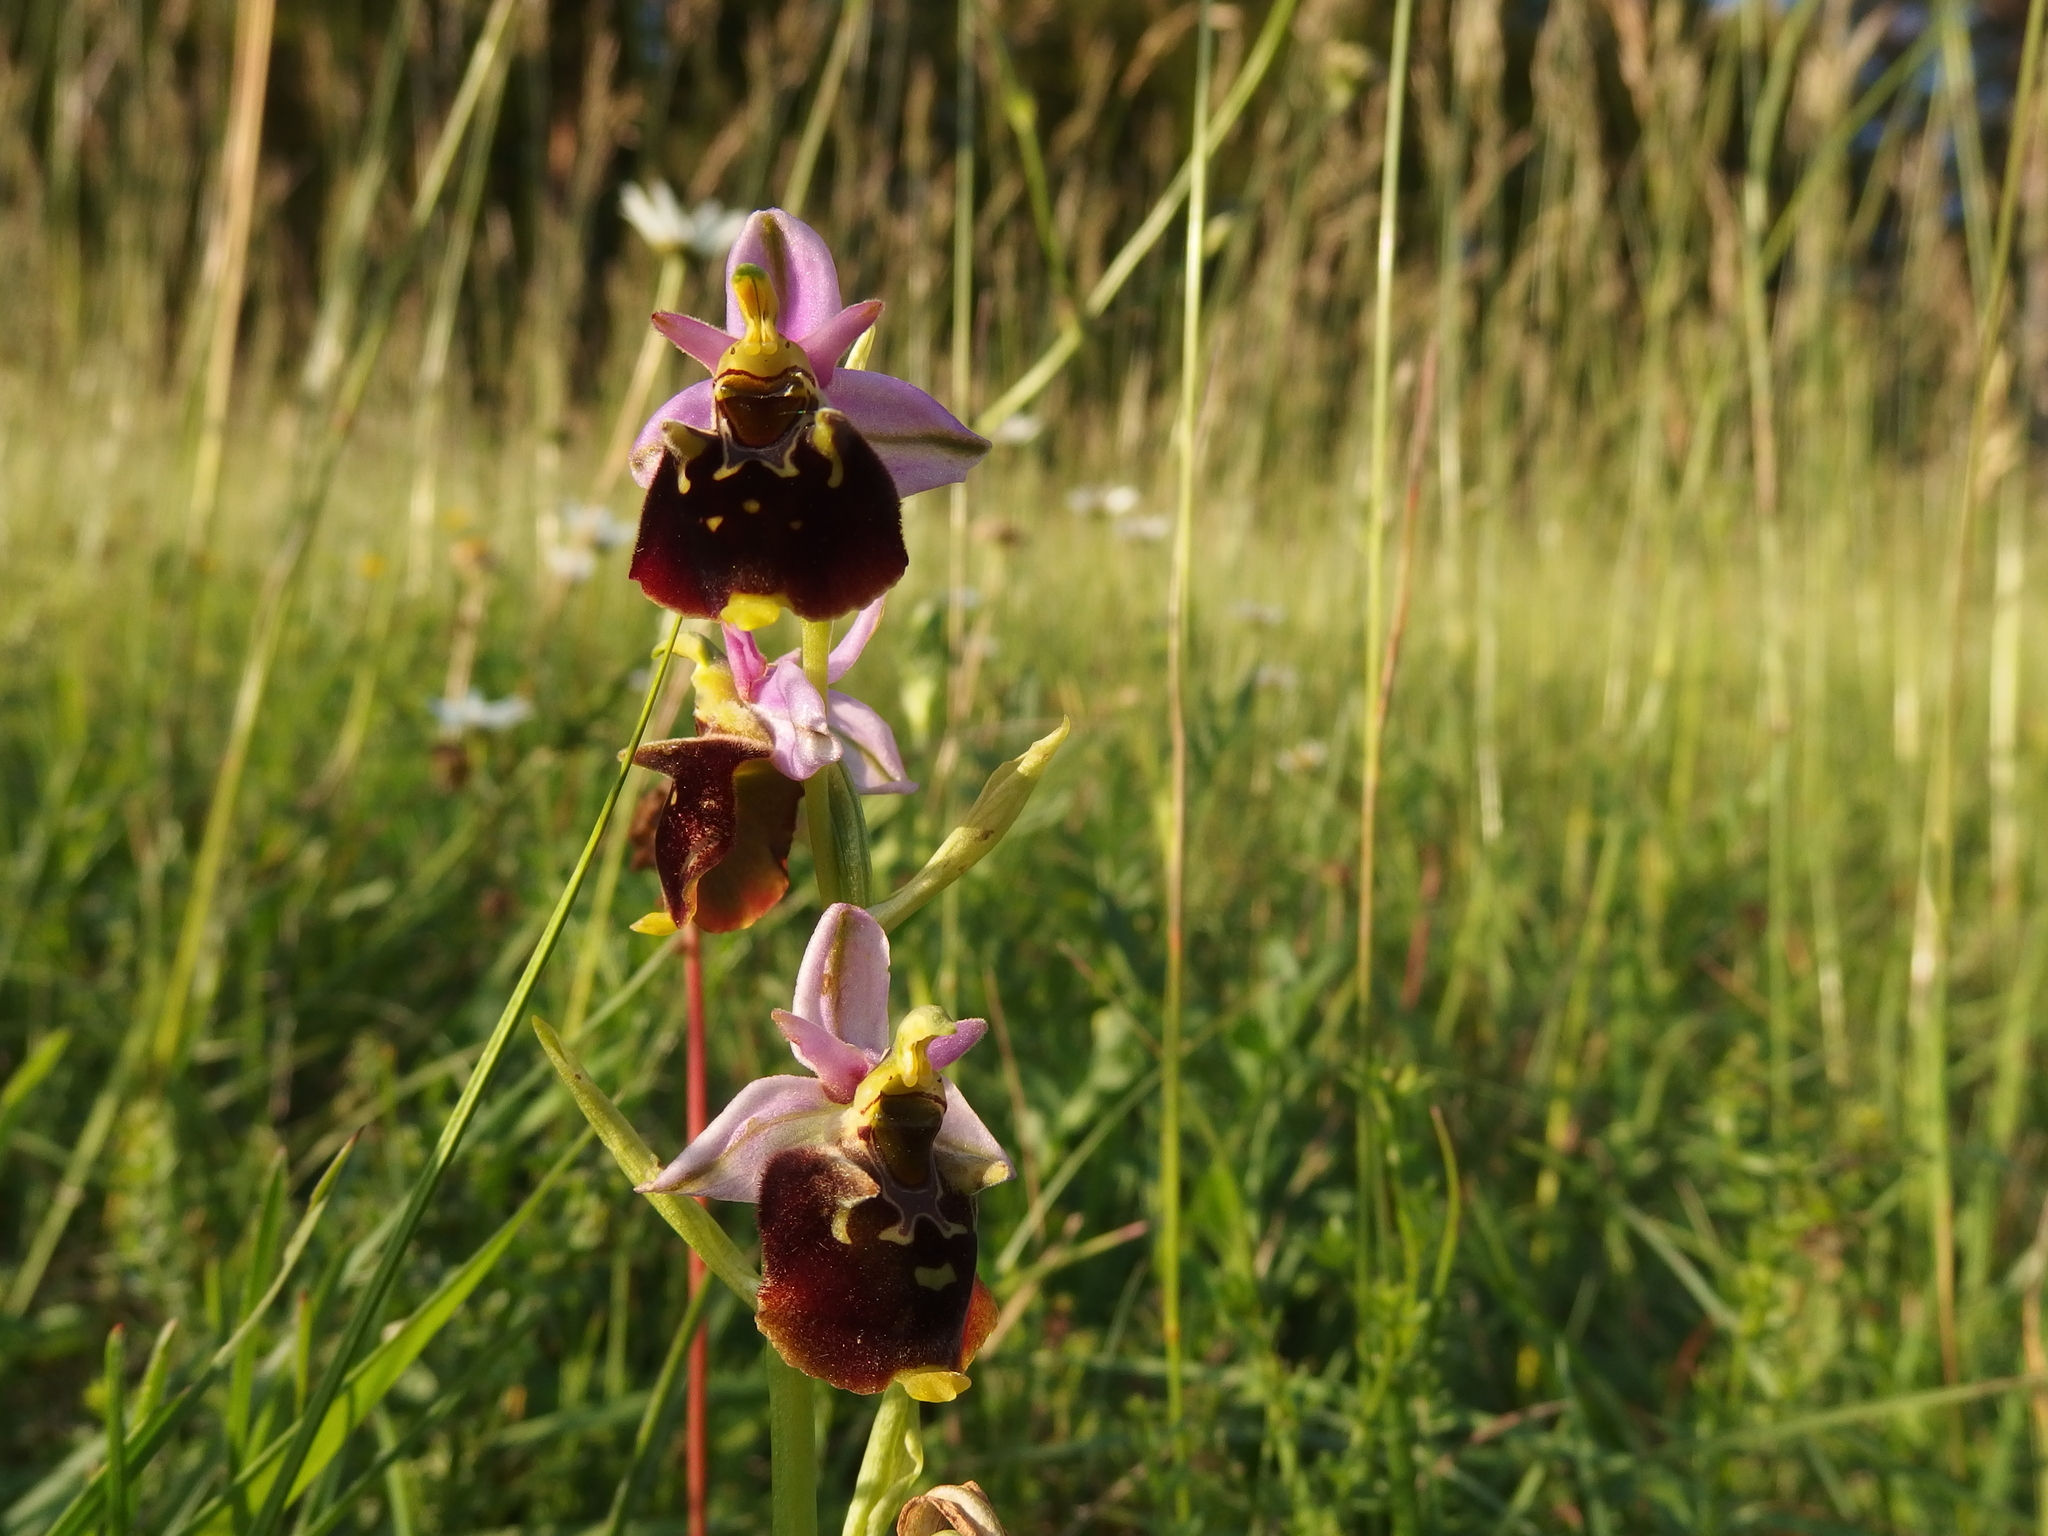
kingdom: Plantae
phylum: Tracheophyta
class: Liliopsida
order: Asparagales
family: Orchidaceae
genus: Ophrys
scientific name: Ophrys holosericea
